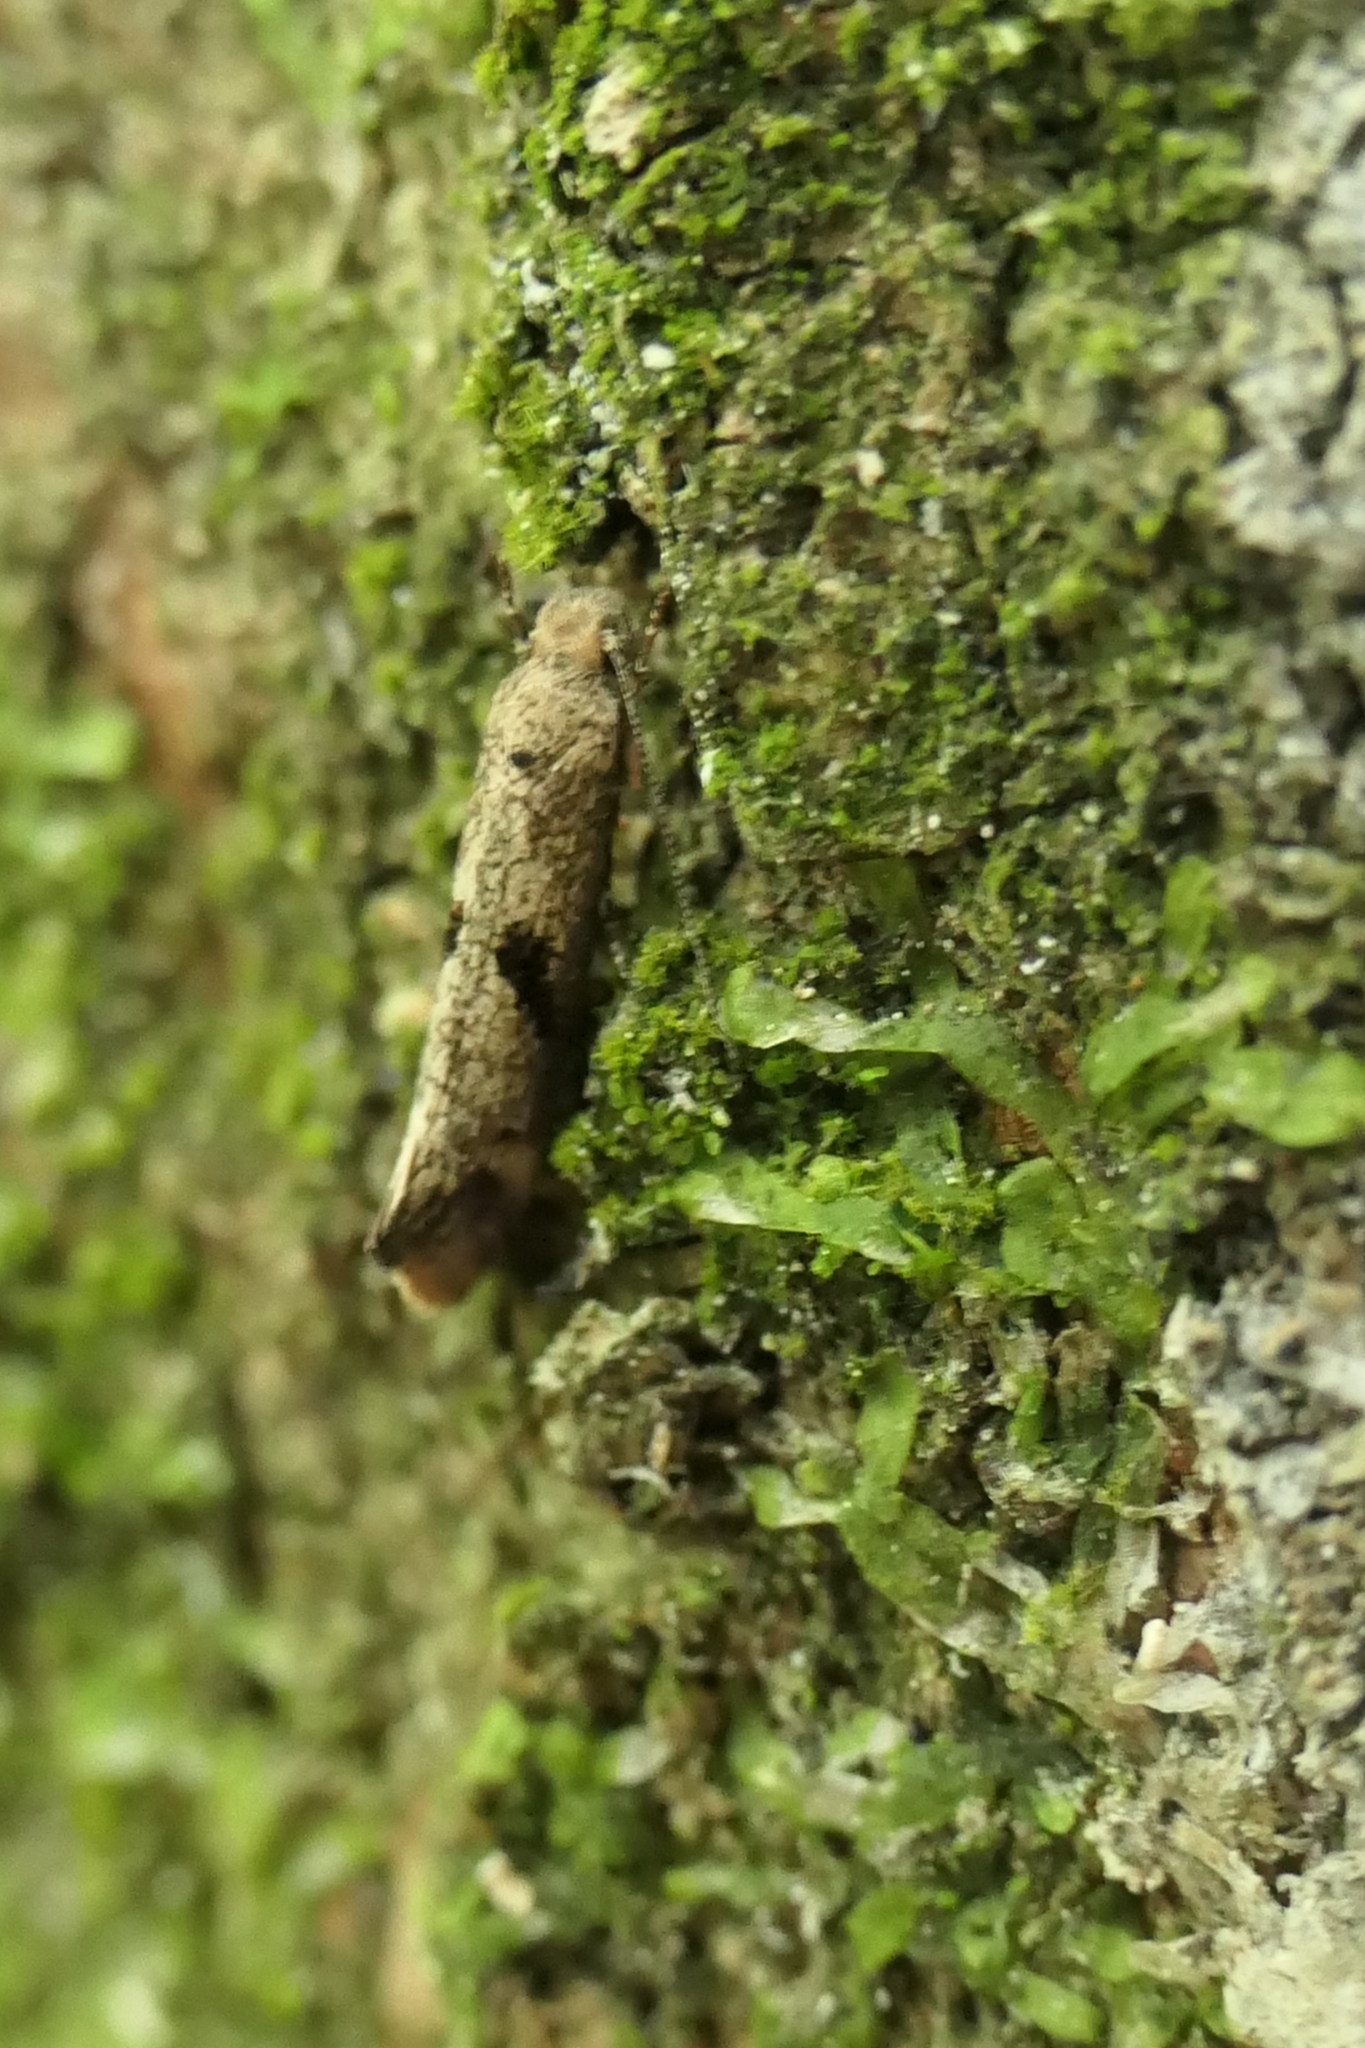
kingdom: Animalia
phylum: Arthropoda
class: Insecta
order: Lepidoptera
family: Tineidae
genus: Tinea
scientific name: Tinea mochlota
